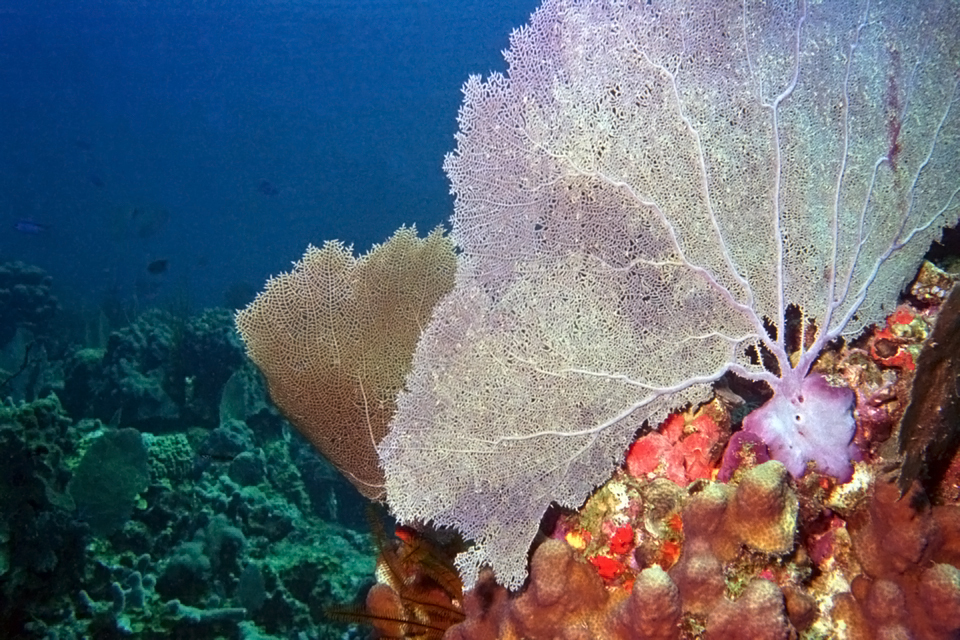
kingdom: Animalia
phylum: Cnidaria
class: Anthozoa
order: Malacalcyonacea
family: Gorgoniidae
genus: Gorgonia
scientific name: Gorgonia ventalina
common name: Common sea fan
